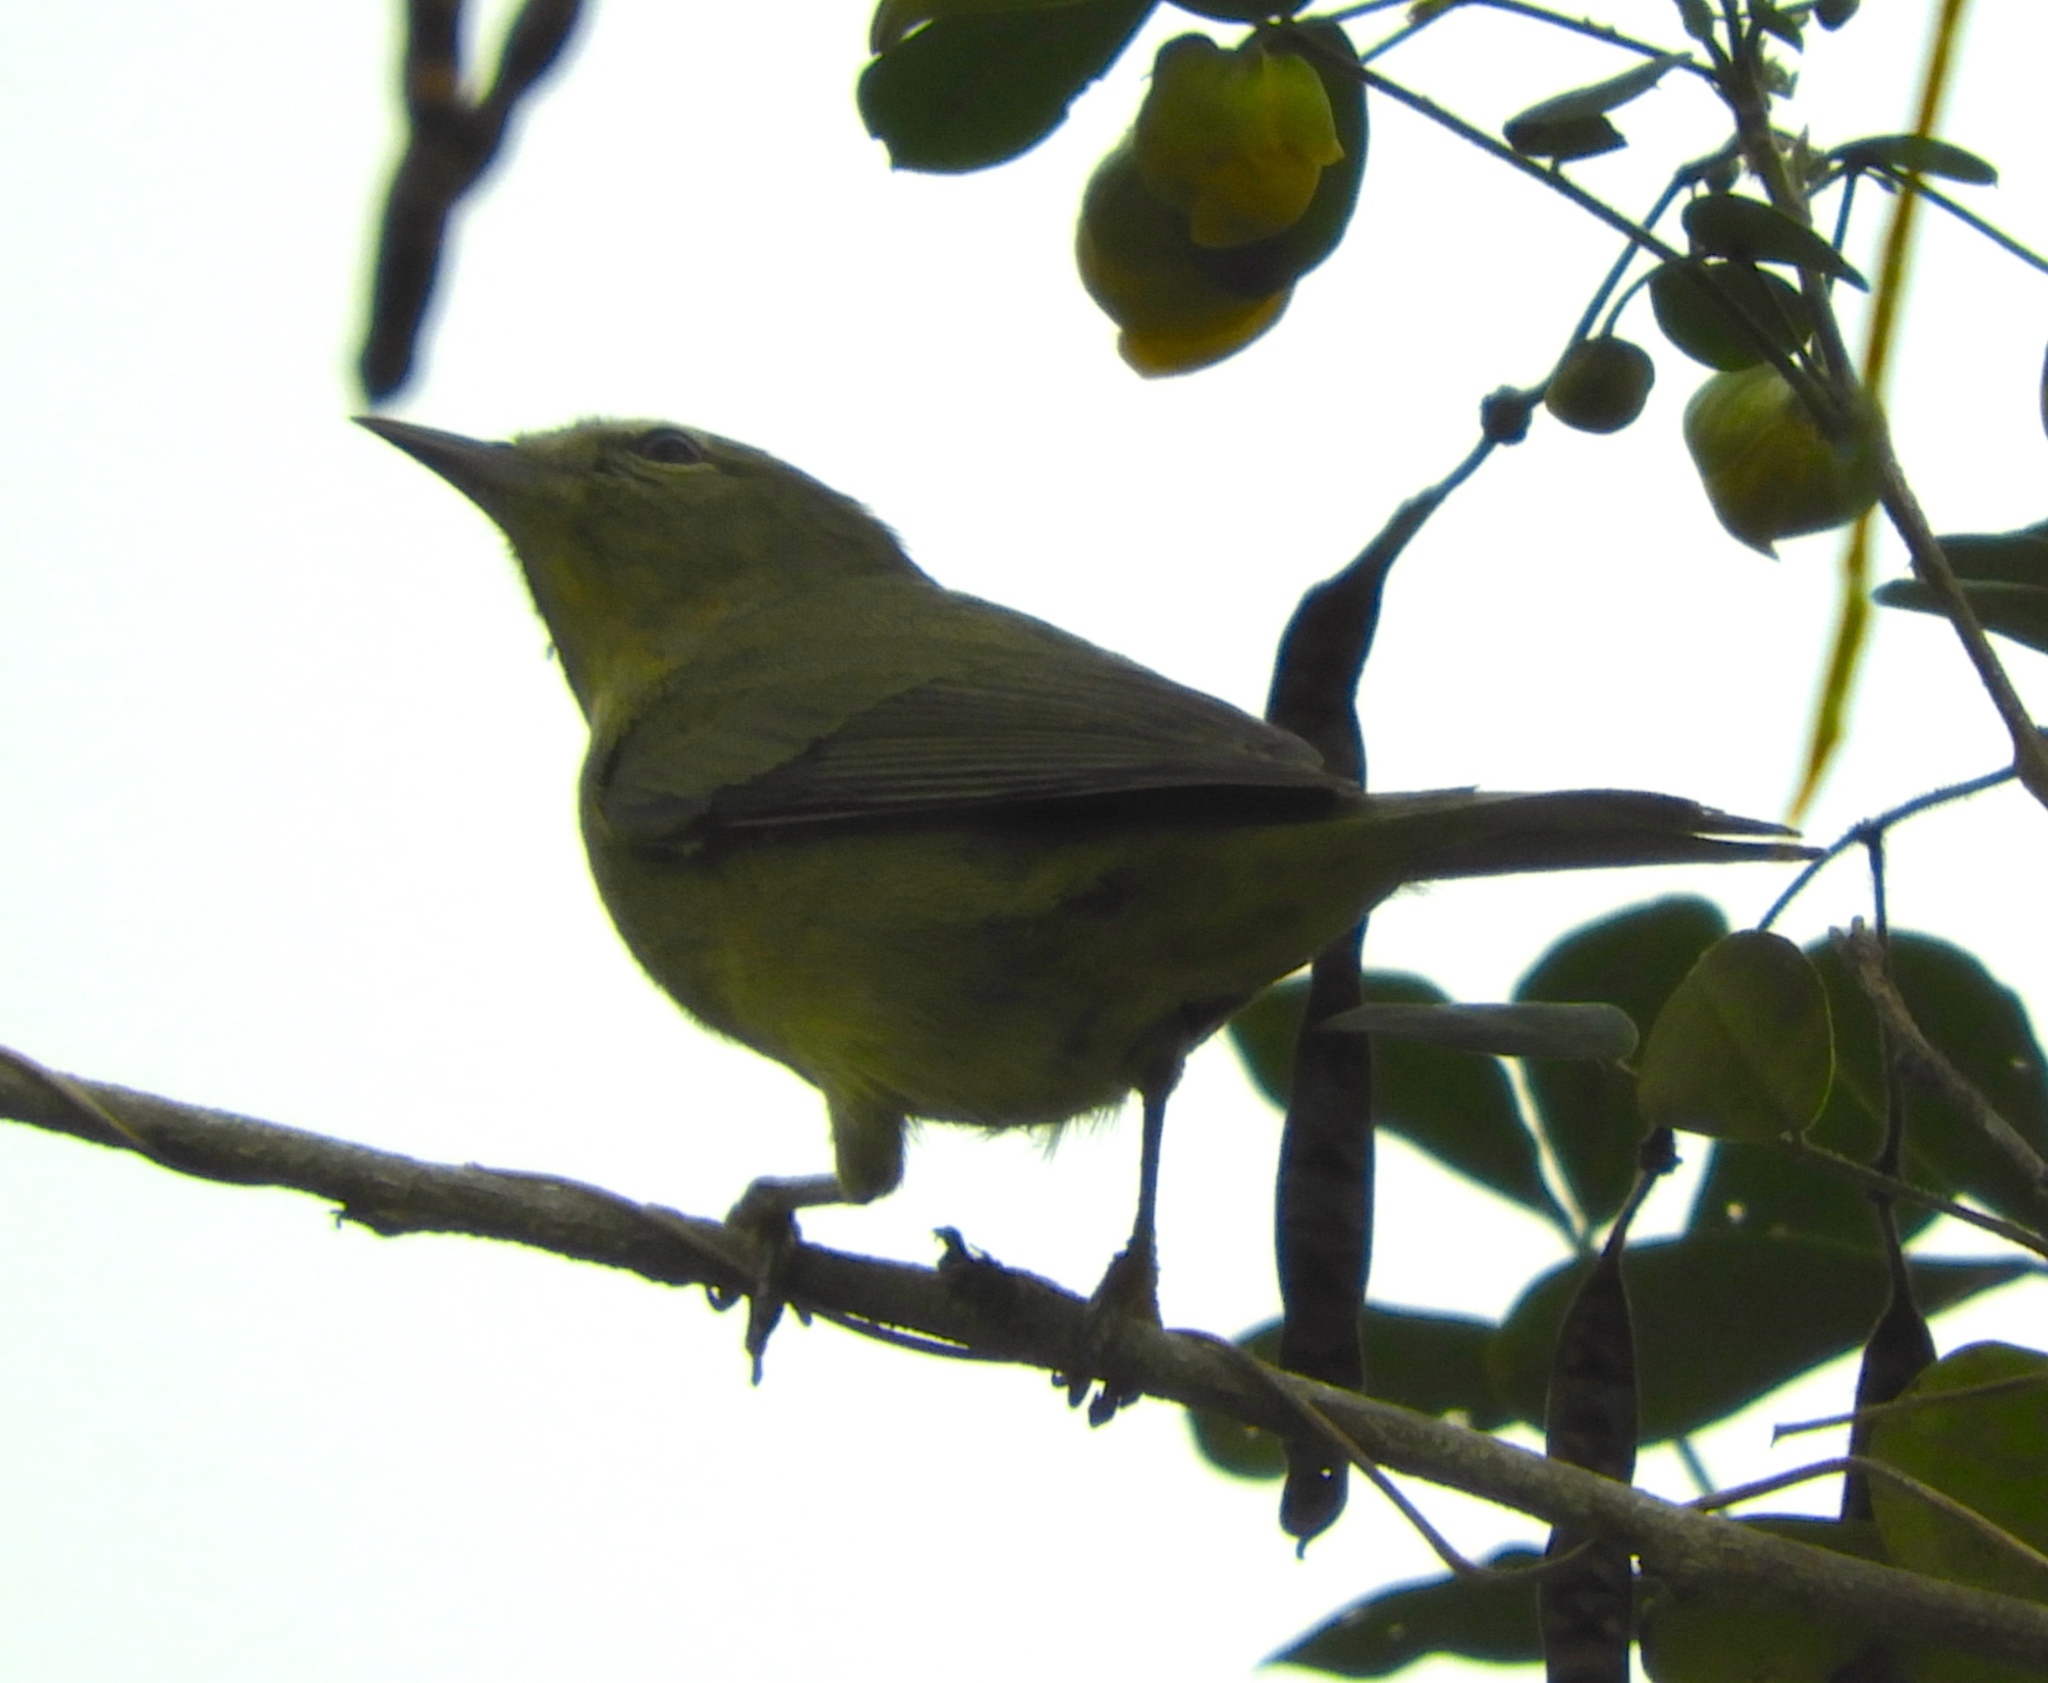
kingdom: Animalia
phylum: Chordata
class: Aves
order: Passeriformes
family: Parulidae
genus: Leiothlypis
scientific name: Leiothlypis celata
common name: Orange-crowned warbler
